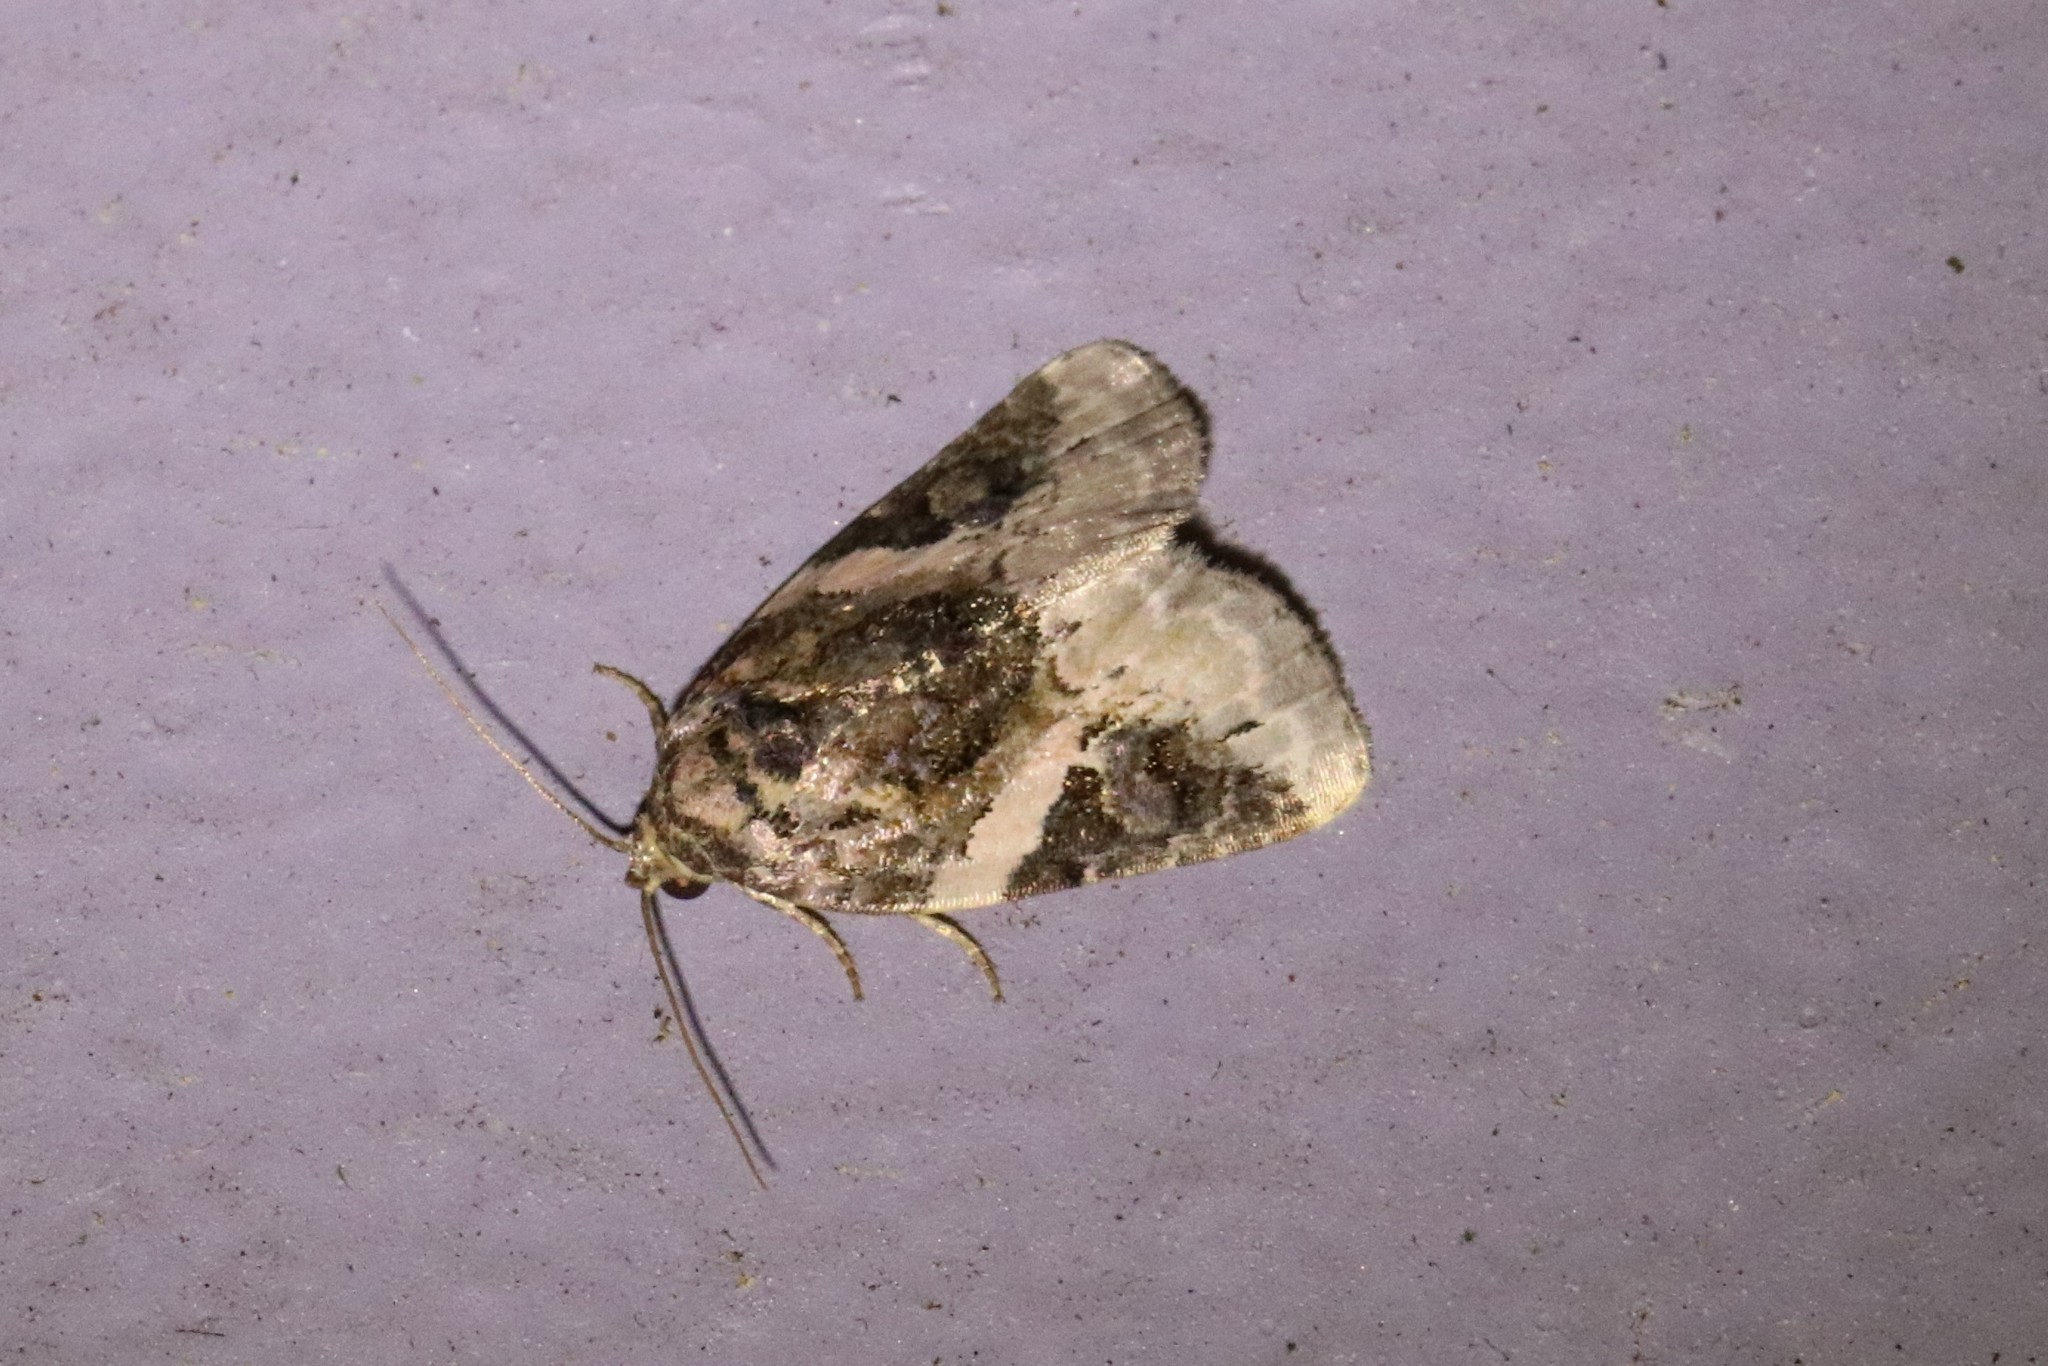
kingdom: Animalia
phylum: Arthropoda
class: Insecta
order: Lepidoptera
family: Noctuidae
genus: Pseudeustrotia
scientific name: Pseudeustrotia carneola
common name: Pink-barred lithacodia moth
